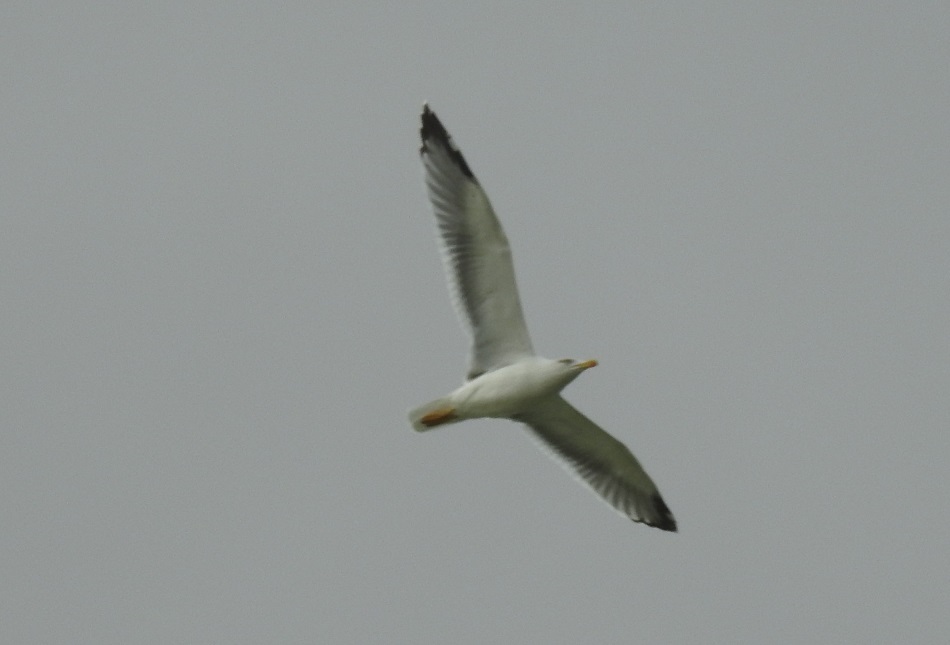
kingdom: Animalia
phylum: Chordata
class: Aves
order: Charadriiformes
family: Laridae
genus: Larus
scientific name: Larus michahellis
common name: Yellow-legged gull
